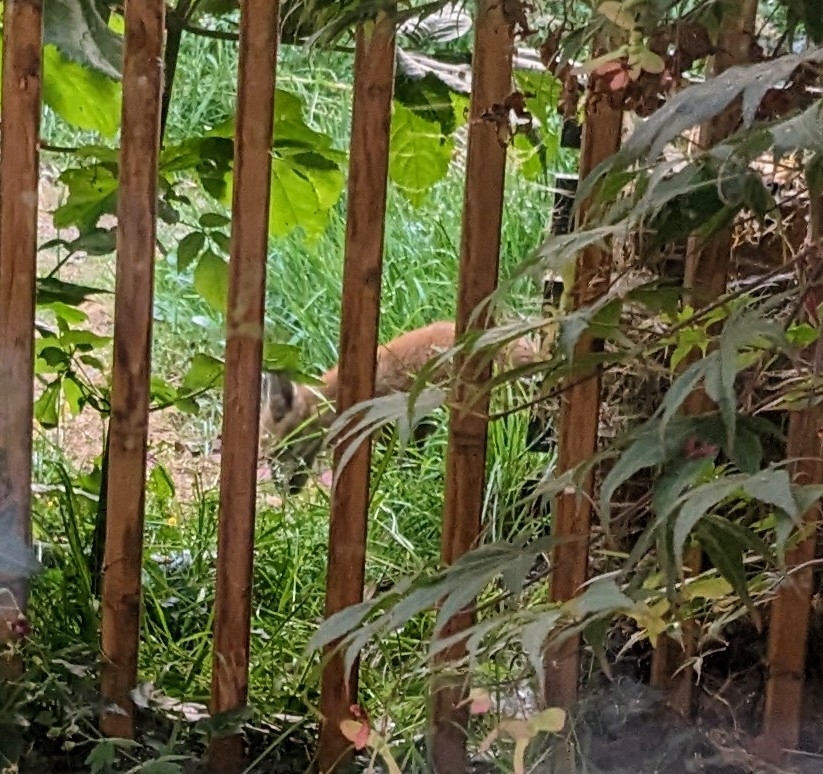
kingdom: Animalia
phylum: Chordata
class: Mammalia
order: Carnivora
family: Canidae
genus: Vulpes
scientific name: Vulpes vulpes
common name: Red fox
